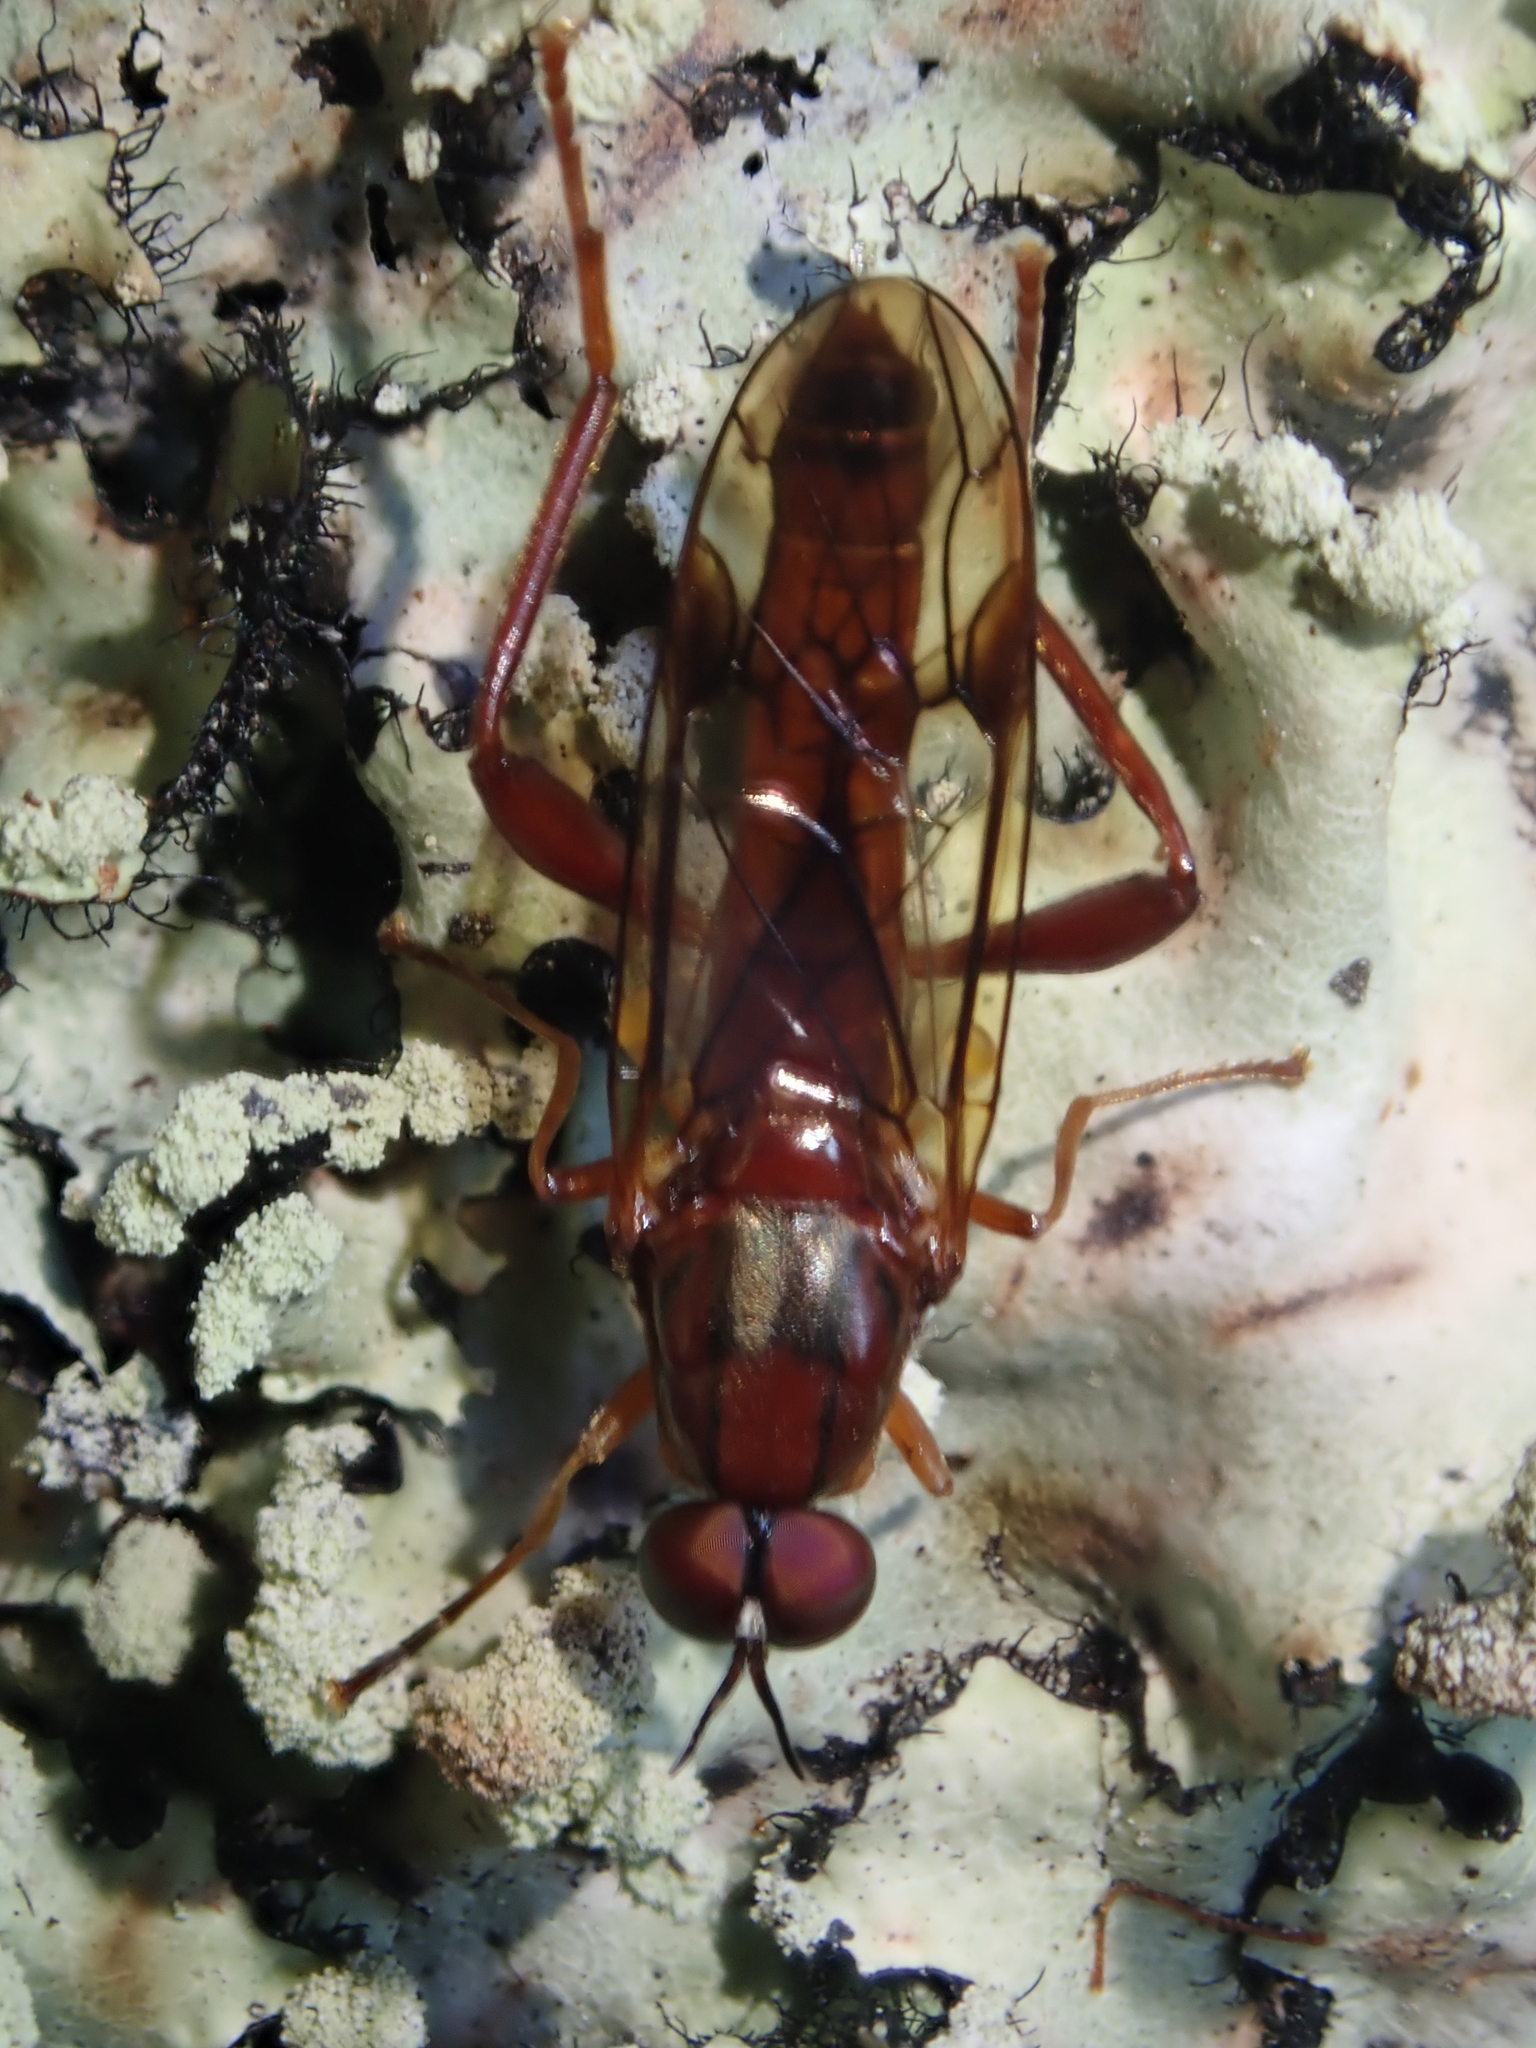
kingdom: Animalia
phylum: Arthropoda
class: Insecta
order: Diptera
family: Stratiomyidae
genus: Benhamyia
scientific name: Benhamyia straznitzkii
